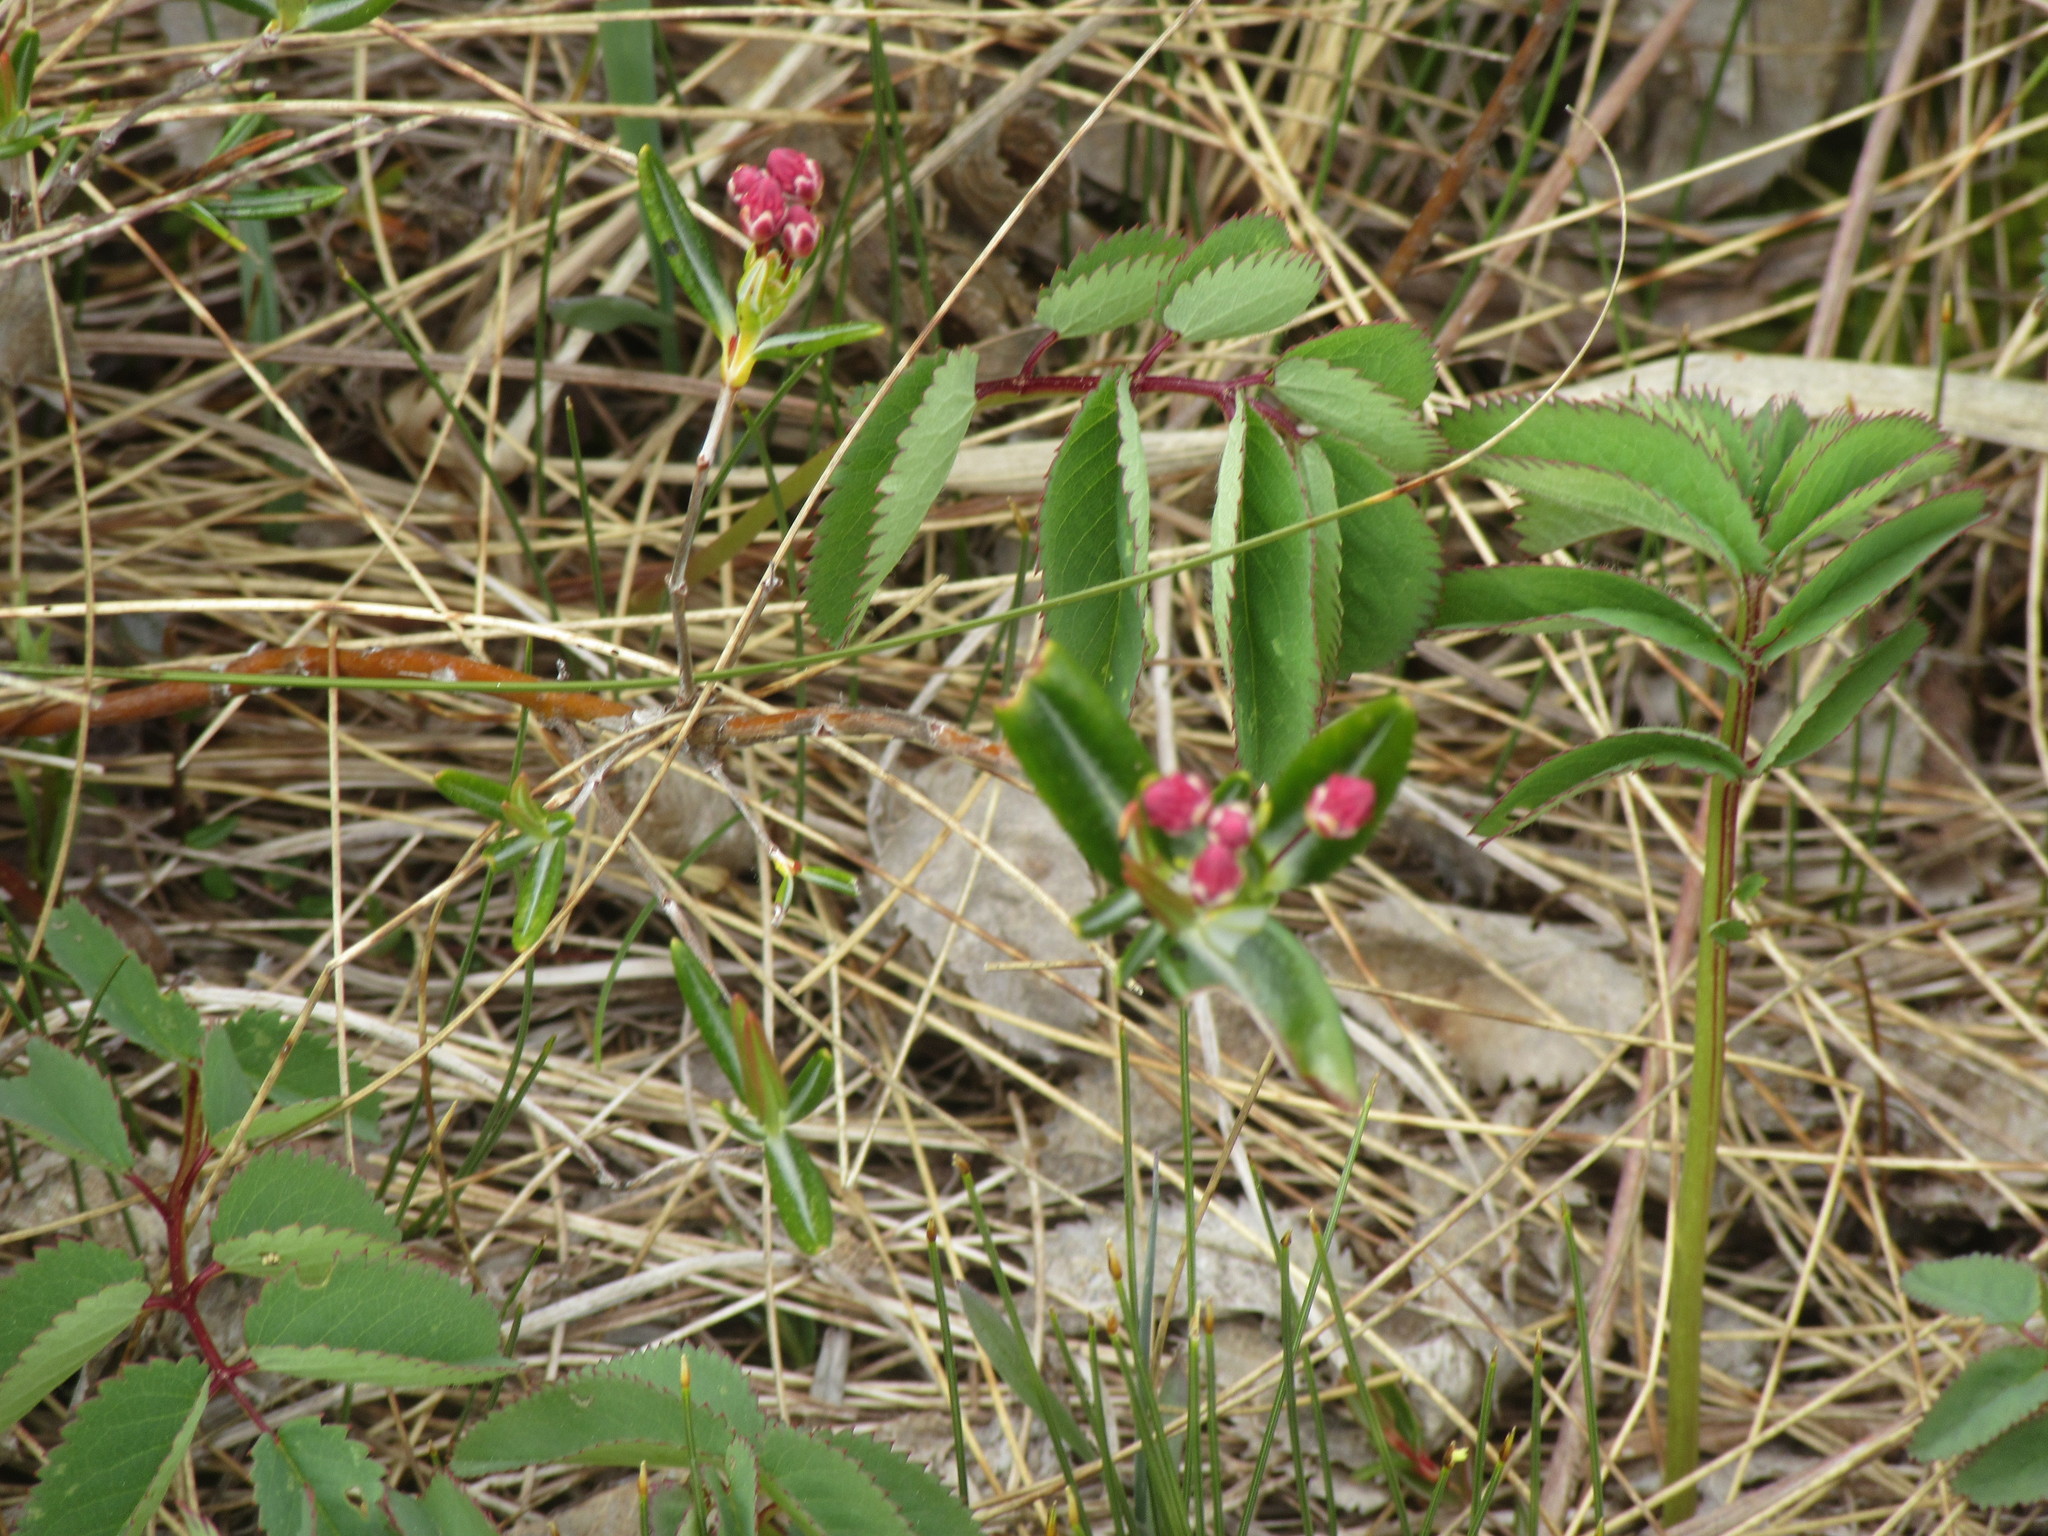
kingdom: Plantae
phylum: Tracheophyta
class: Magnoliopsida
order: Rosales
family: Rosaceae
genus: Sanguisorba
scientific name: Sanguisorba canadensis
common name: White burnet
